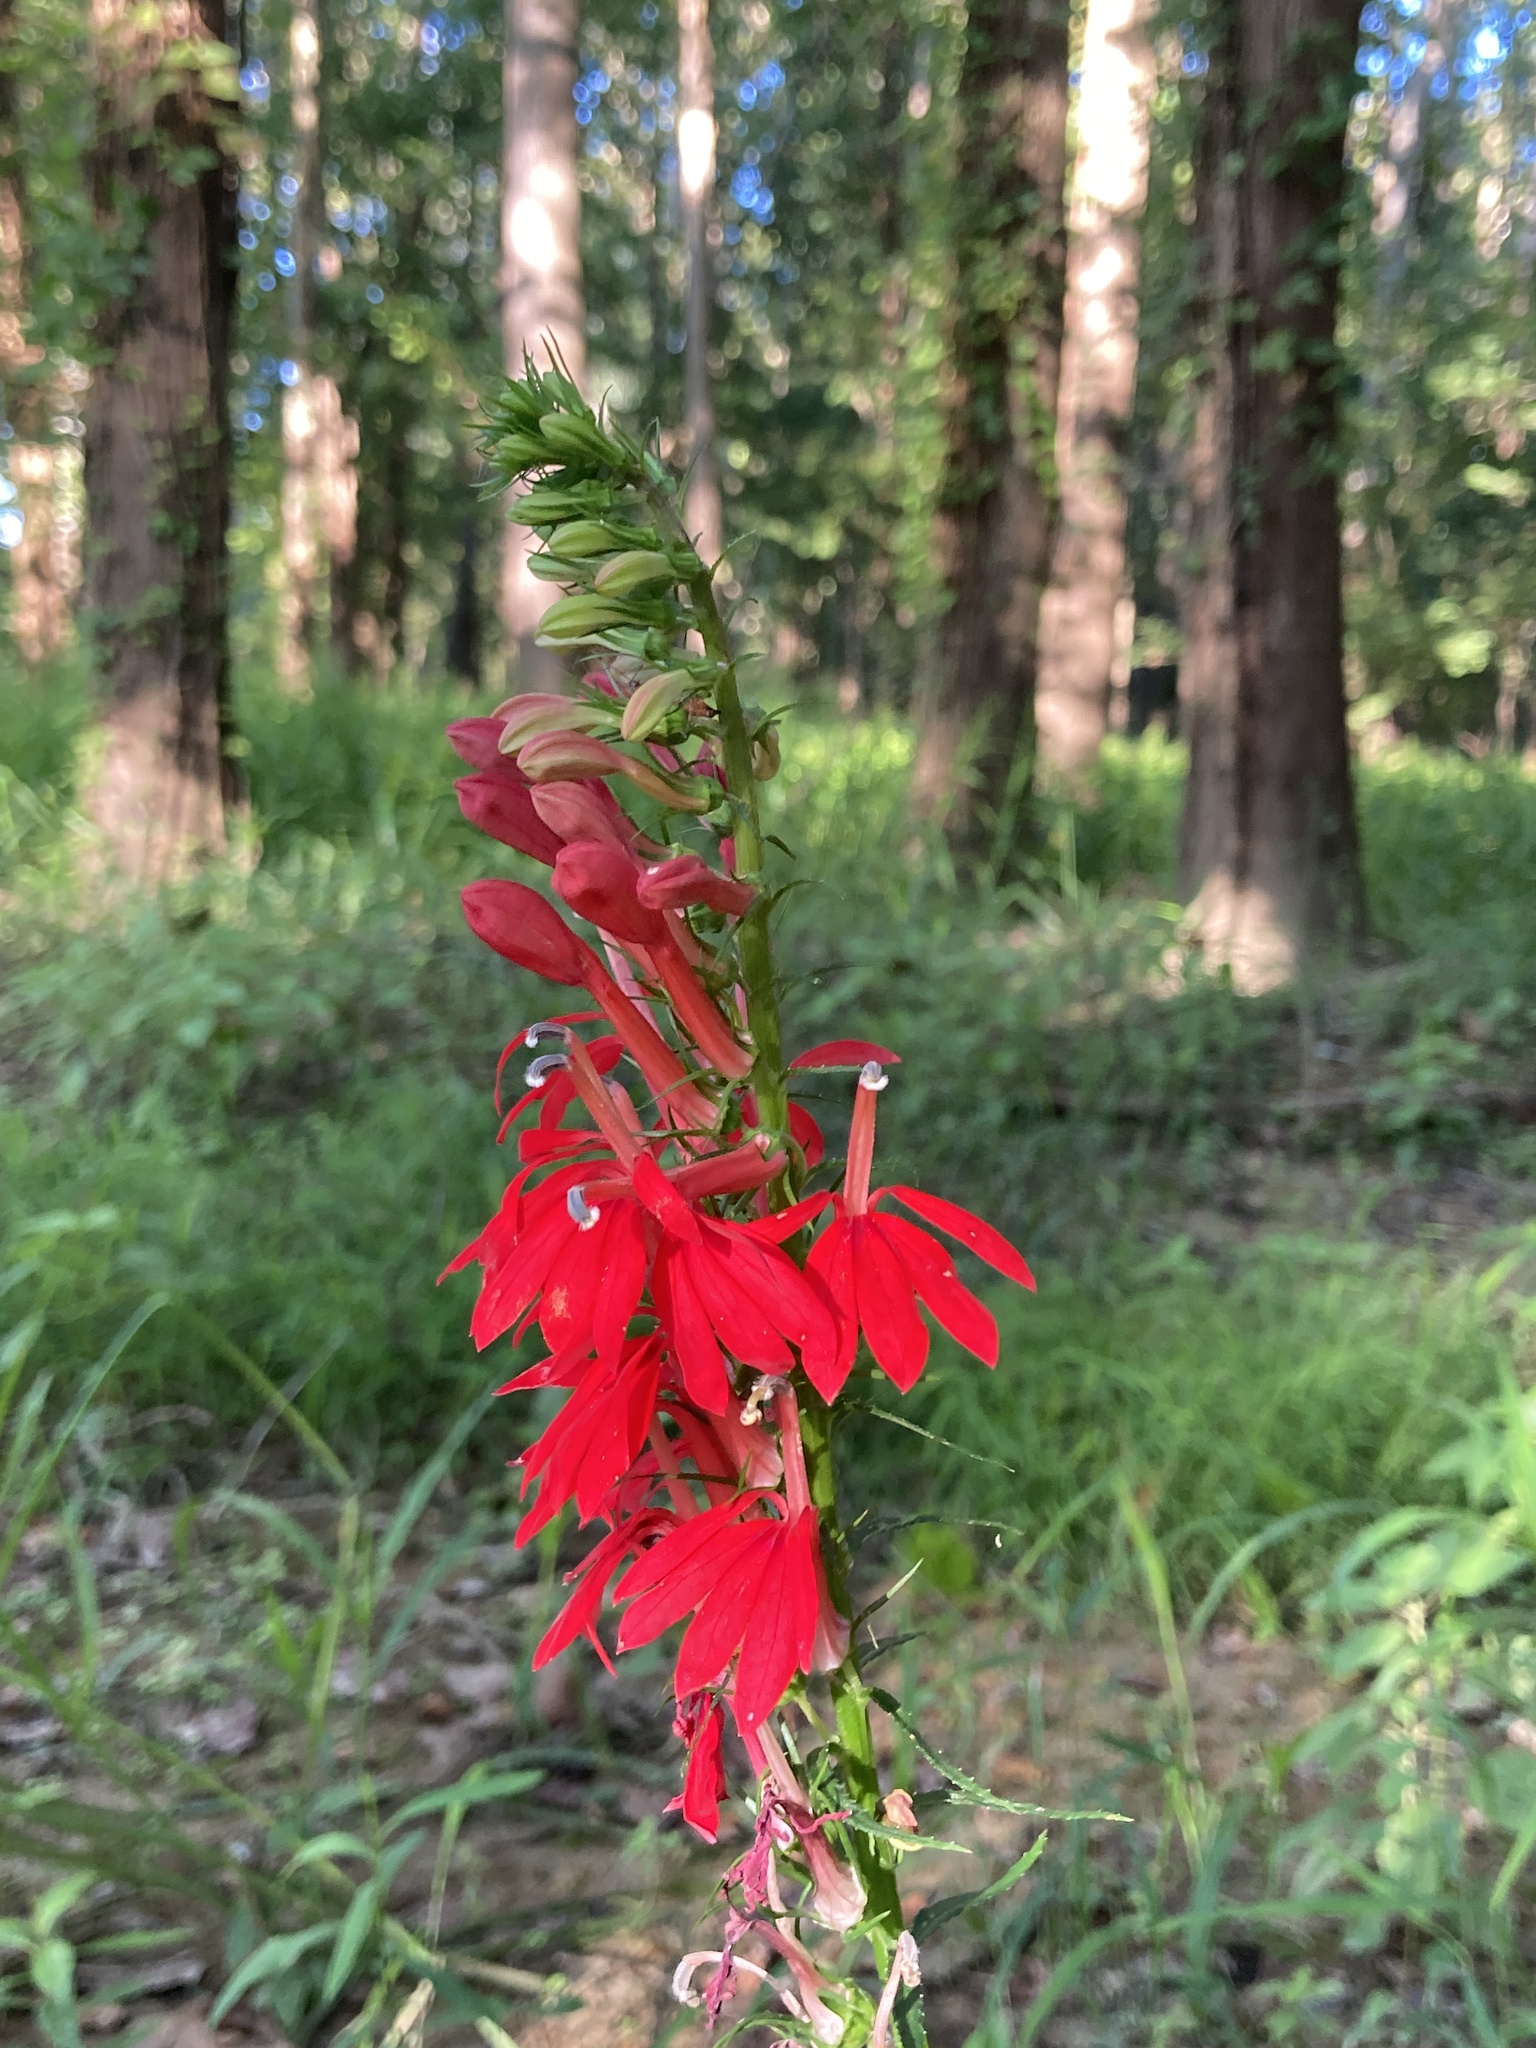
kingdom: Plantae
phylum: Tracheophyta
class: Magnoliopsida
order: Asterales
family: Campanulaceae
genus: Lobelia
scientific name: Lobelia cardinalis
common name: Cardinal flower
